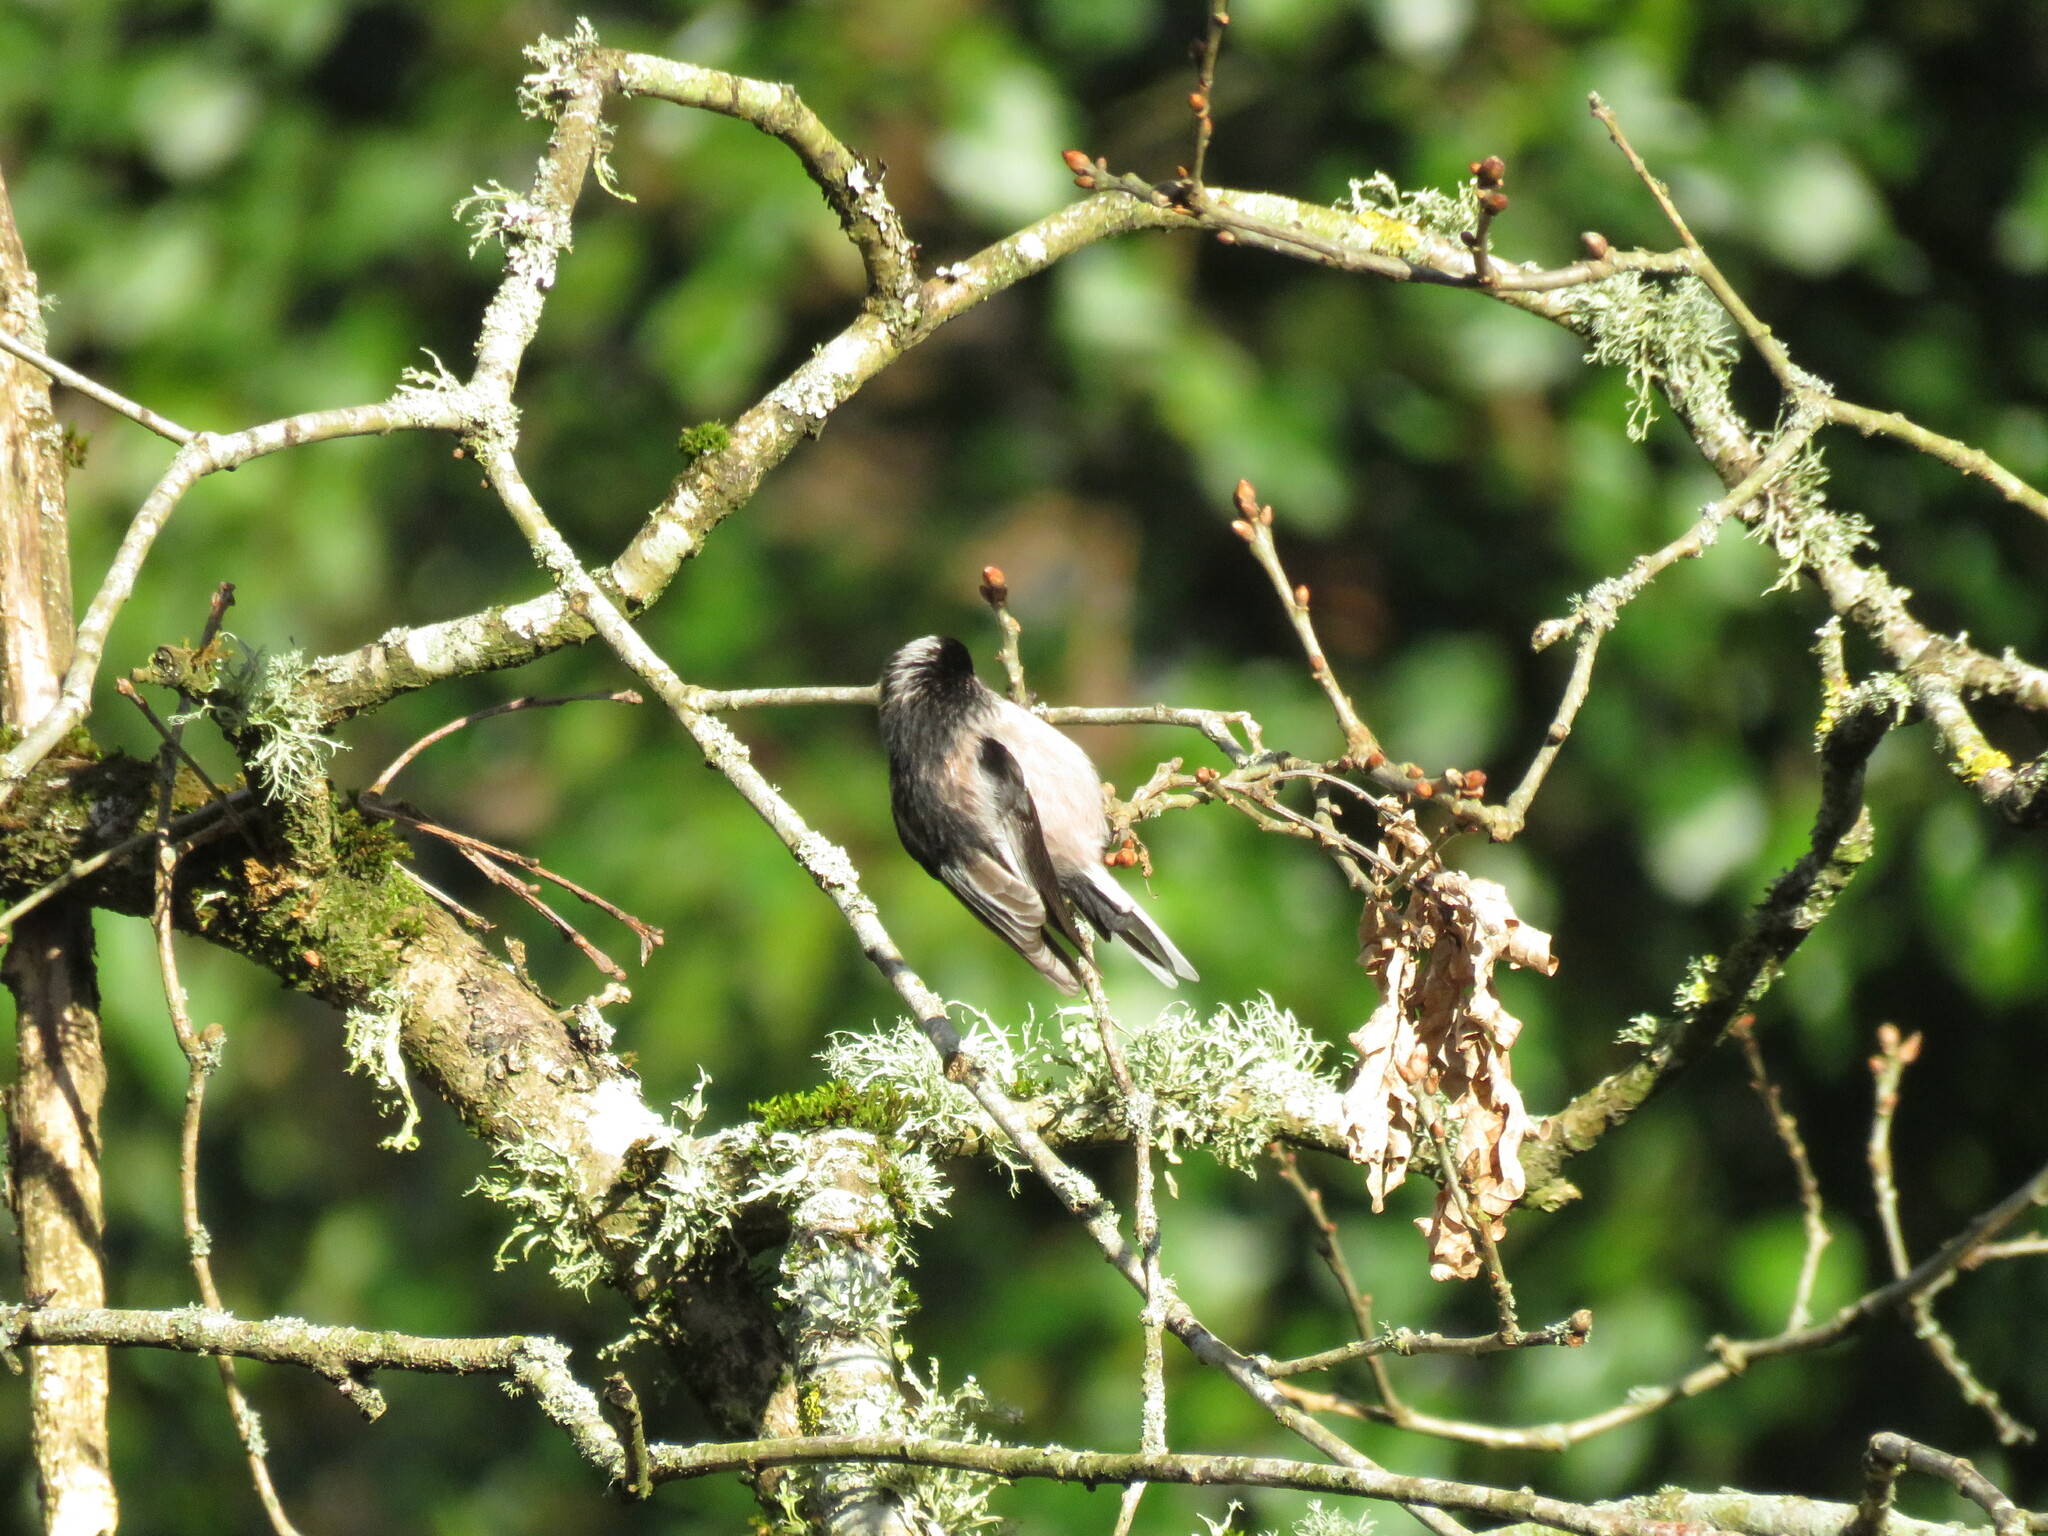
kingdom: Animalia
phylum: Chordata
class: Aves
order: Passeriformes
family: Aegithalidae
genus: Aegithalos
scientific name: Aegithalos caudatus
